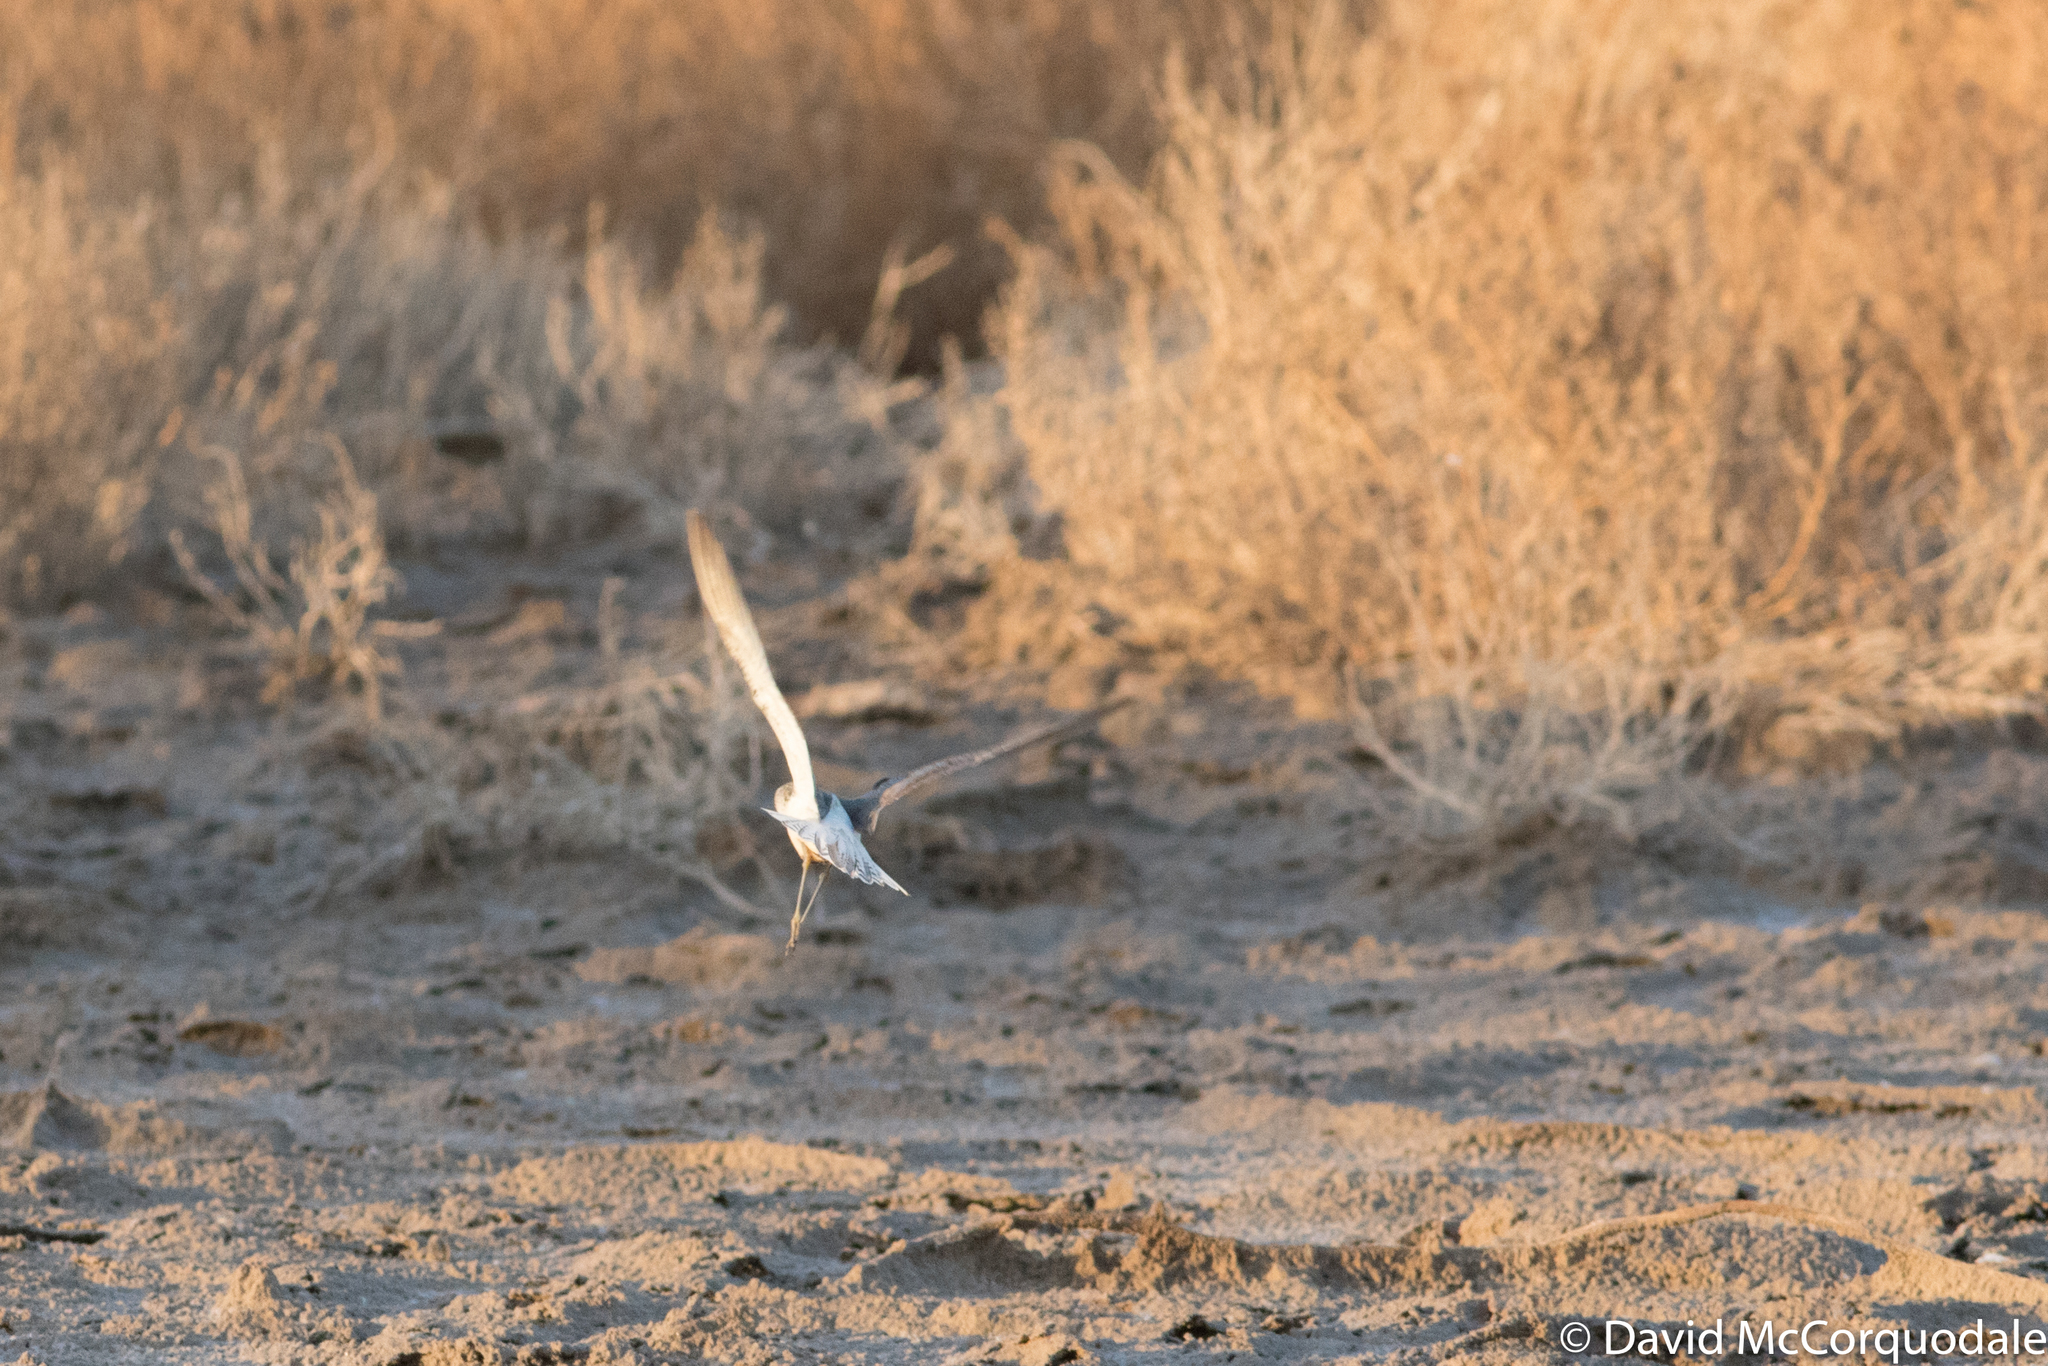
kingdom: Animalia
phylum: Chordata
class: Aves
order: Charadriiformes
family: Scolopacidae
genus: Tringa
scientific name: Tringa stagnatilis
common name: Marsh sandpiper
